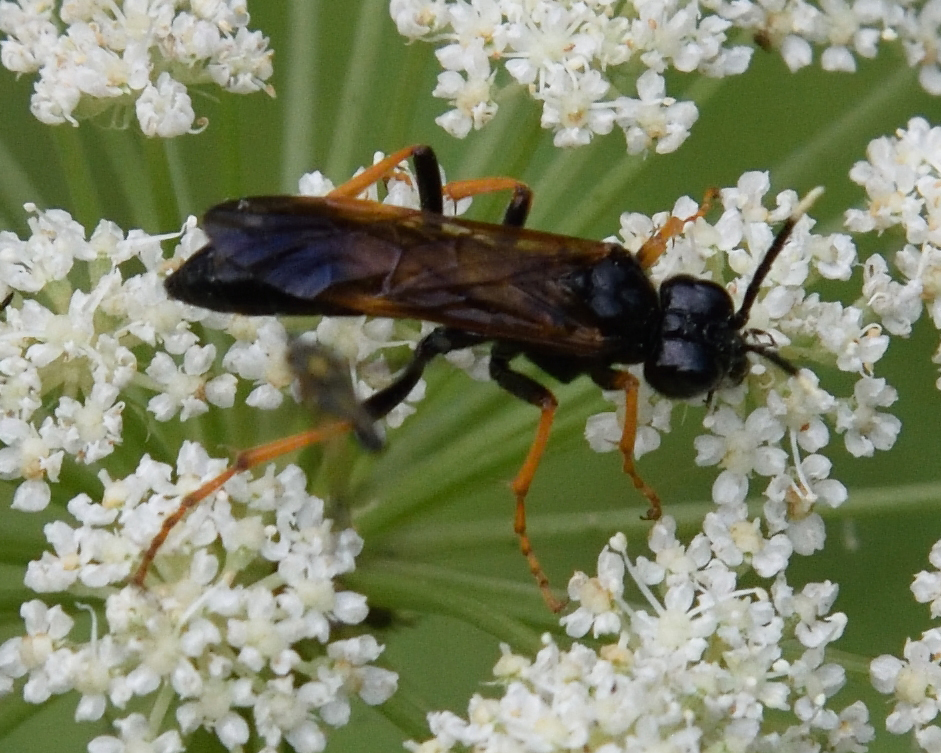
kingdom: Animalia
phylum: Arthropoda
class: Insecta
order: Hymenoptera
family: Tenthredinidae
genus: Tenthredo
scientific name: Tenthredo crassa
